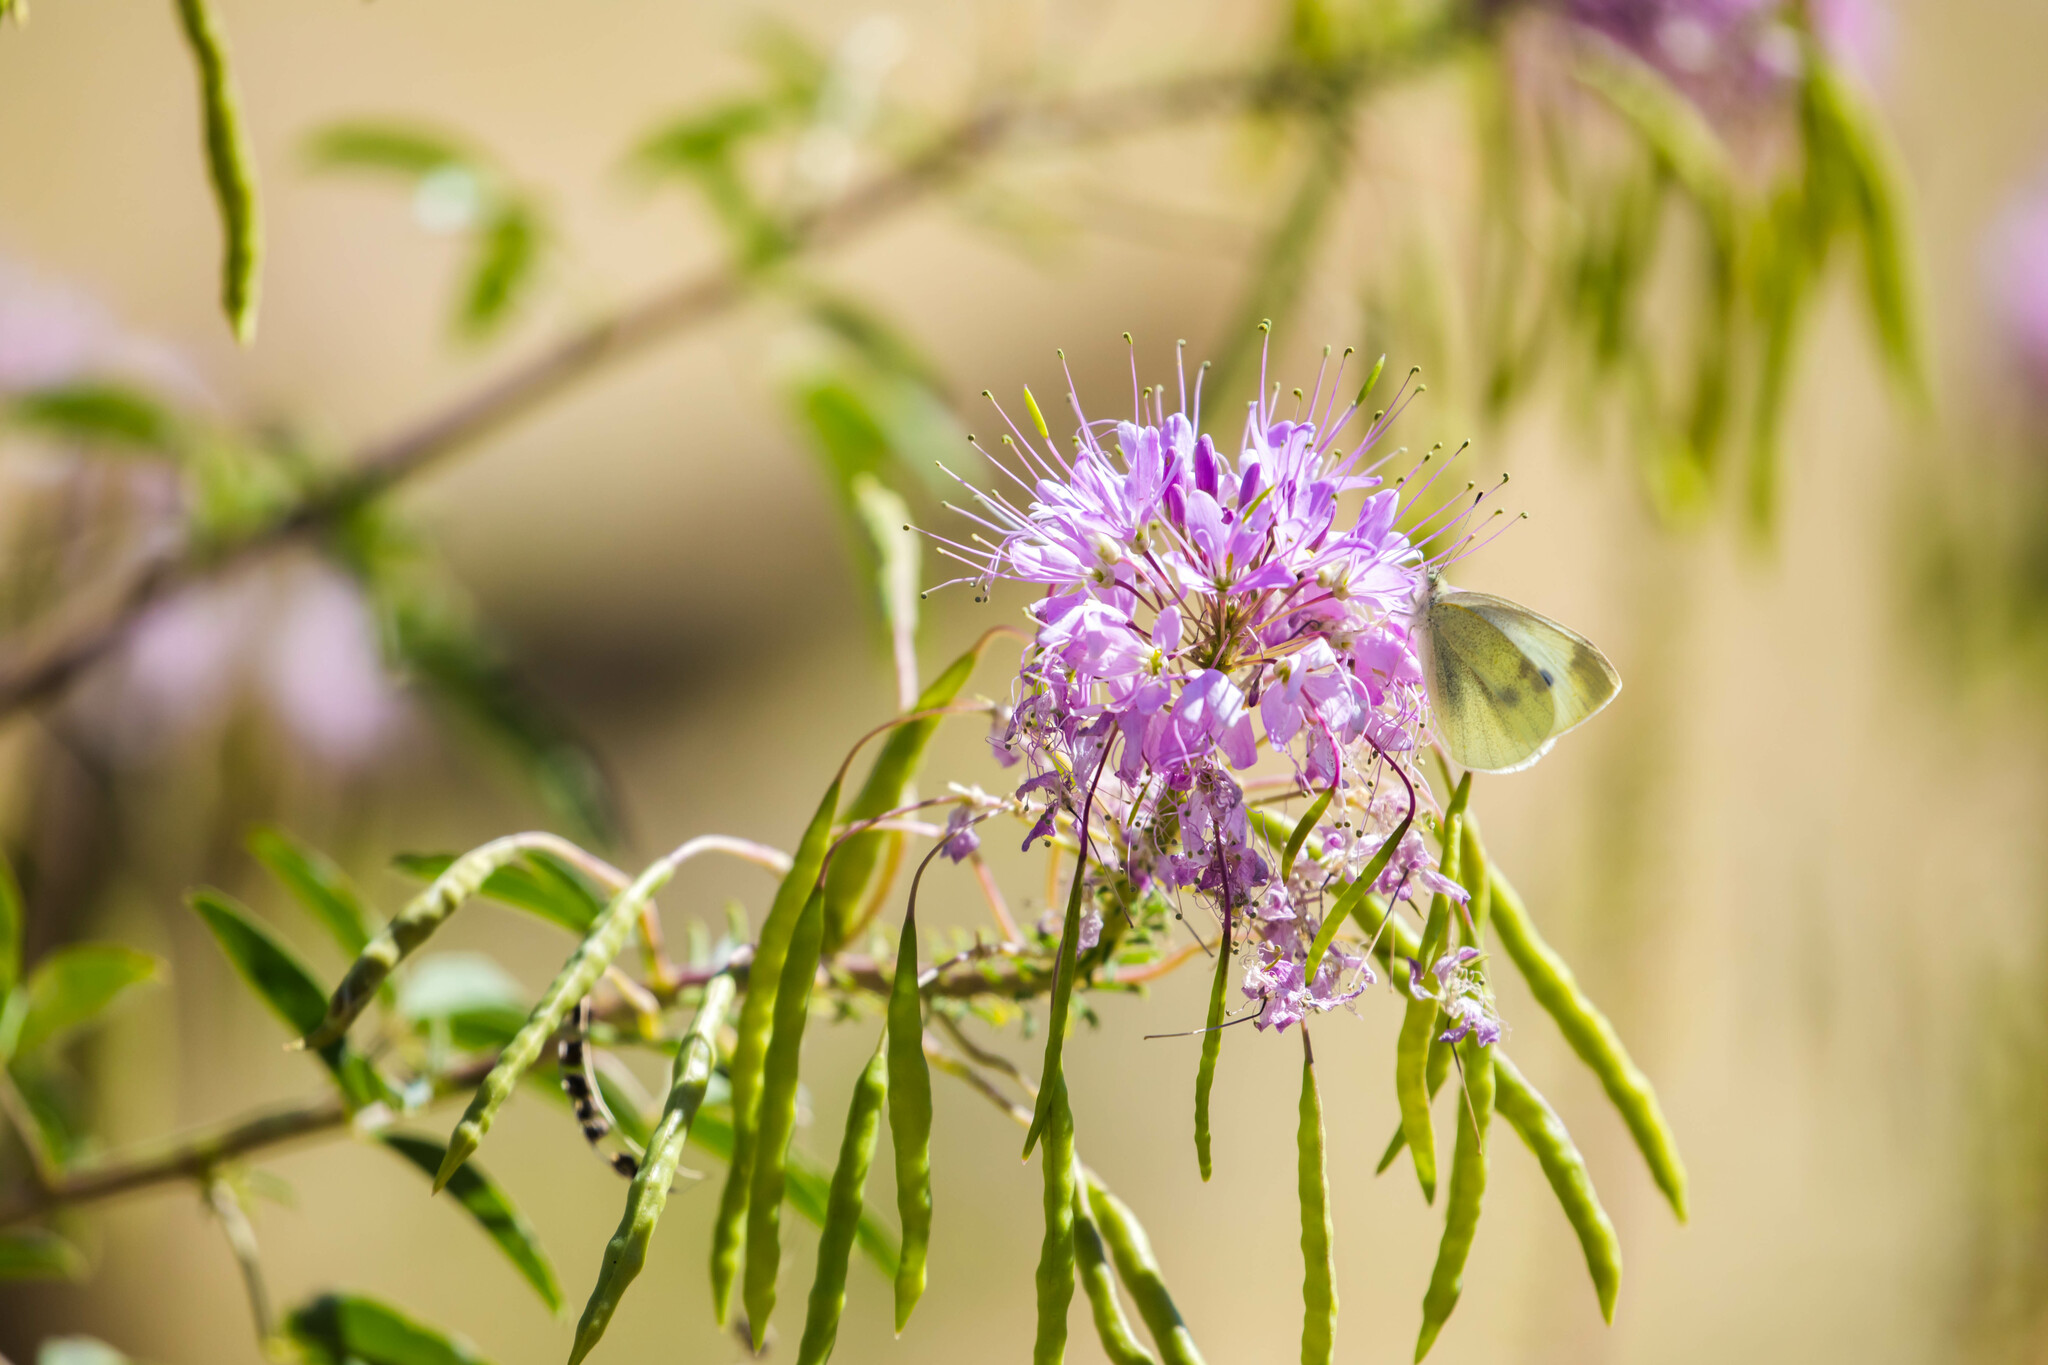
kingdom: Animalia
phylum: Arthropoda
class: Insecta
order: Lepidoptera
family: Pieridae
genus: Pieris
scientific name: Pieris rapae
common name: Small white
